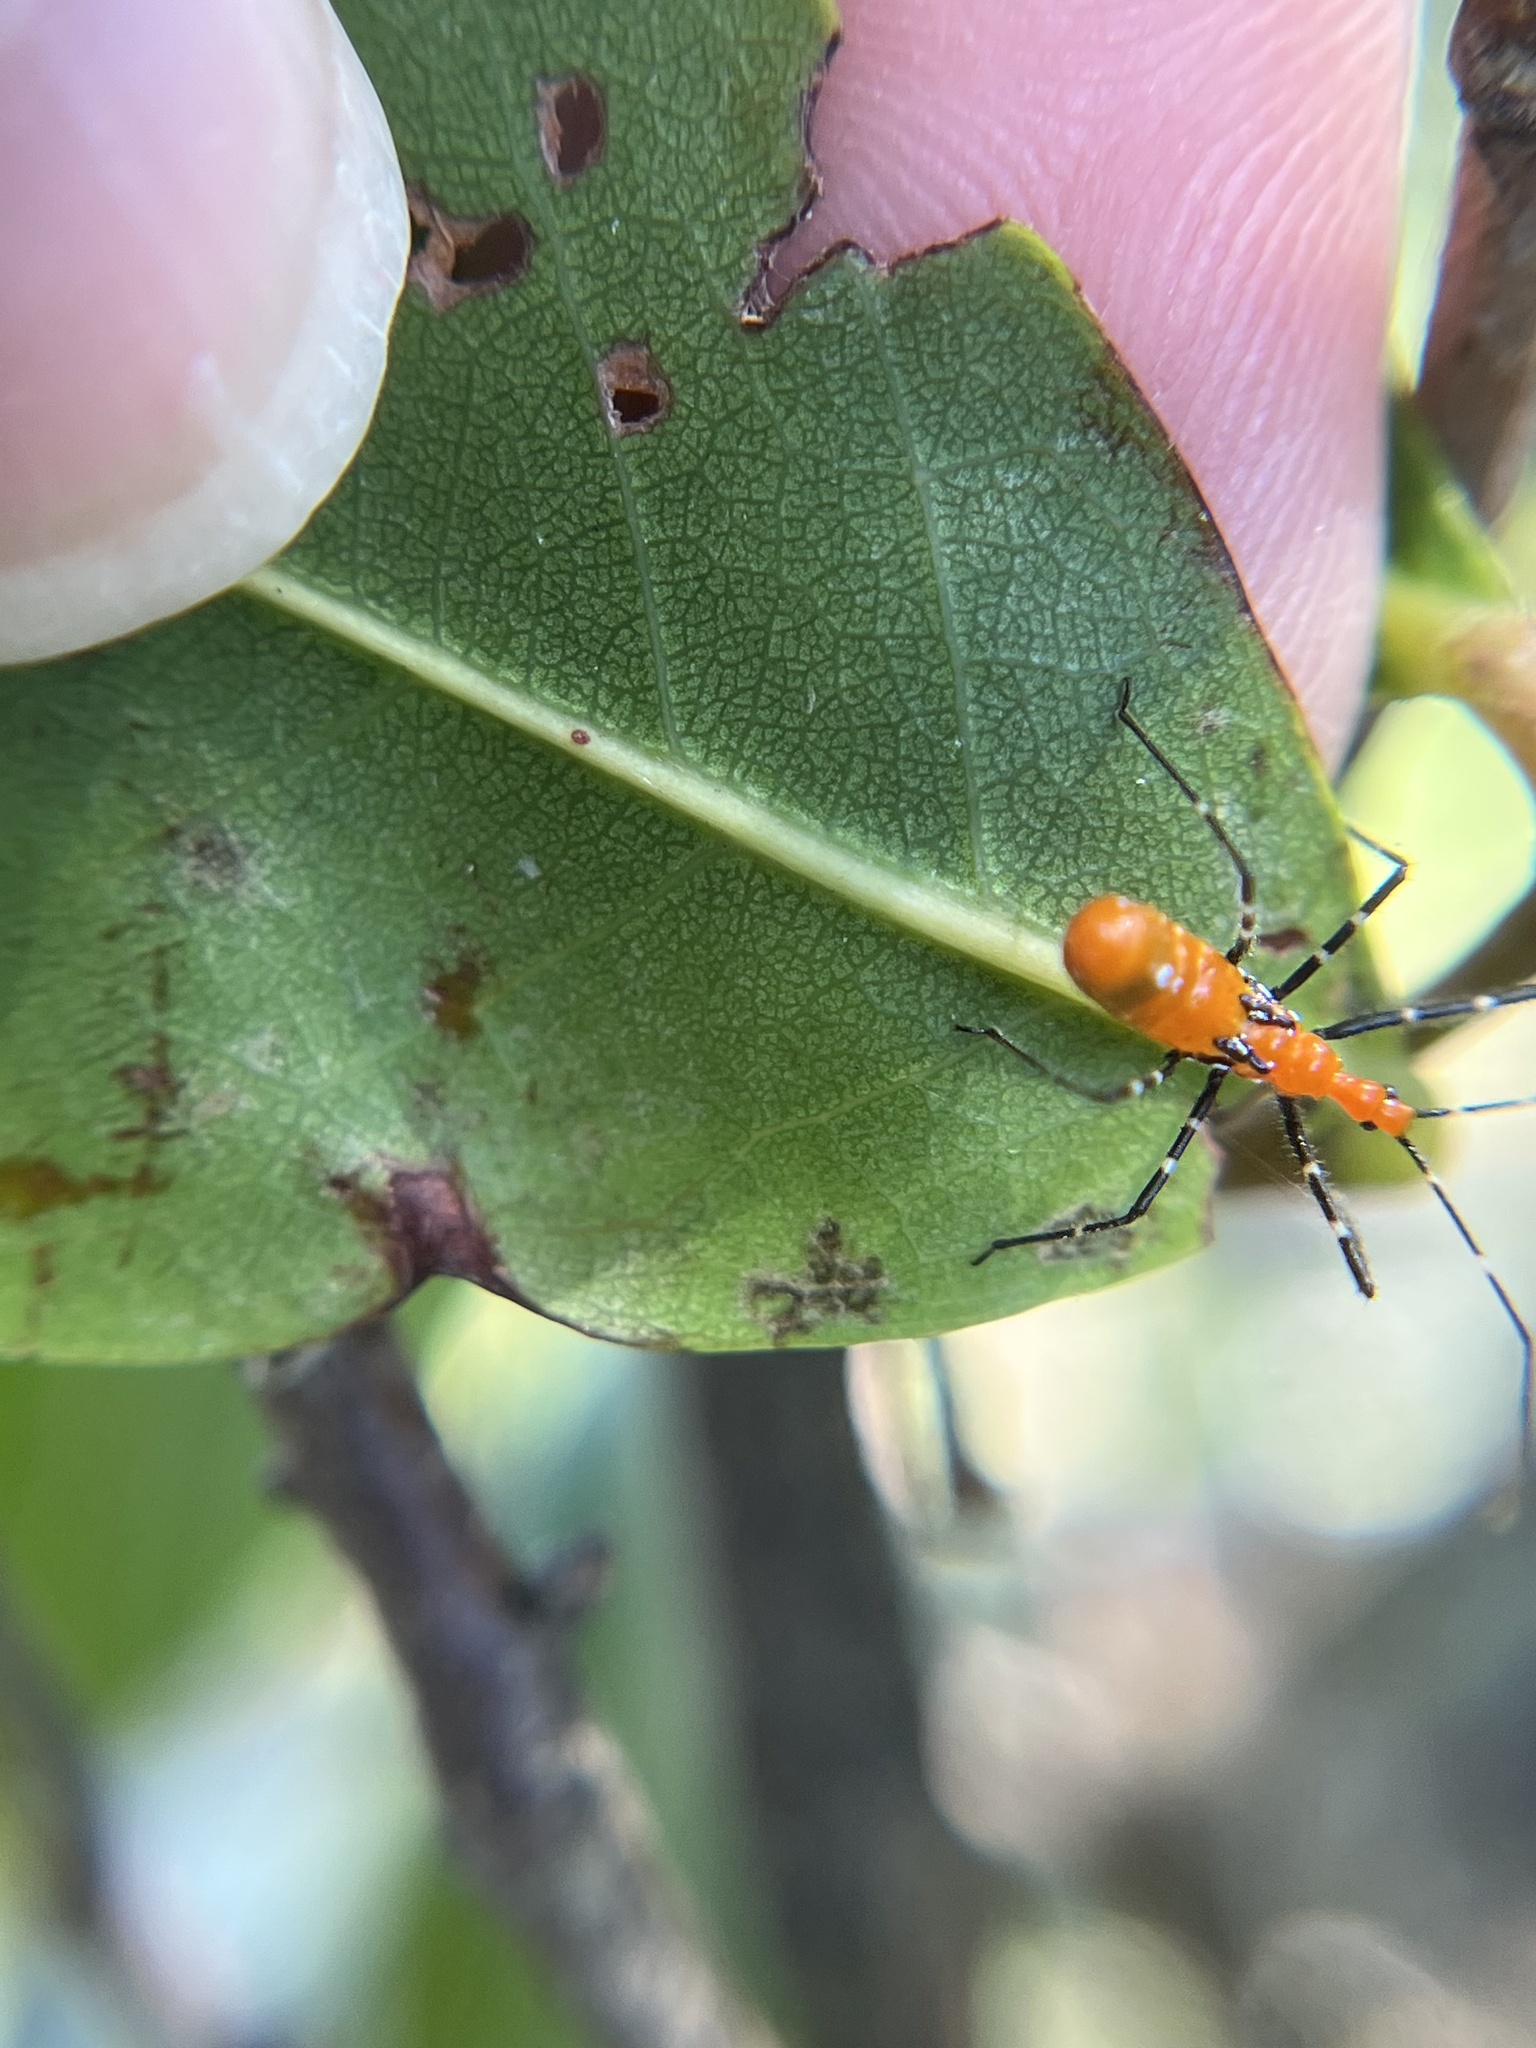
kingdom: Animalia
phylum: Arthropoda
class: Insecta
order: Hemiptera
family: Reduviidae
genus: Zelus
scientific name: Zelus longipes
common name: Milkweed assassin bug
